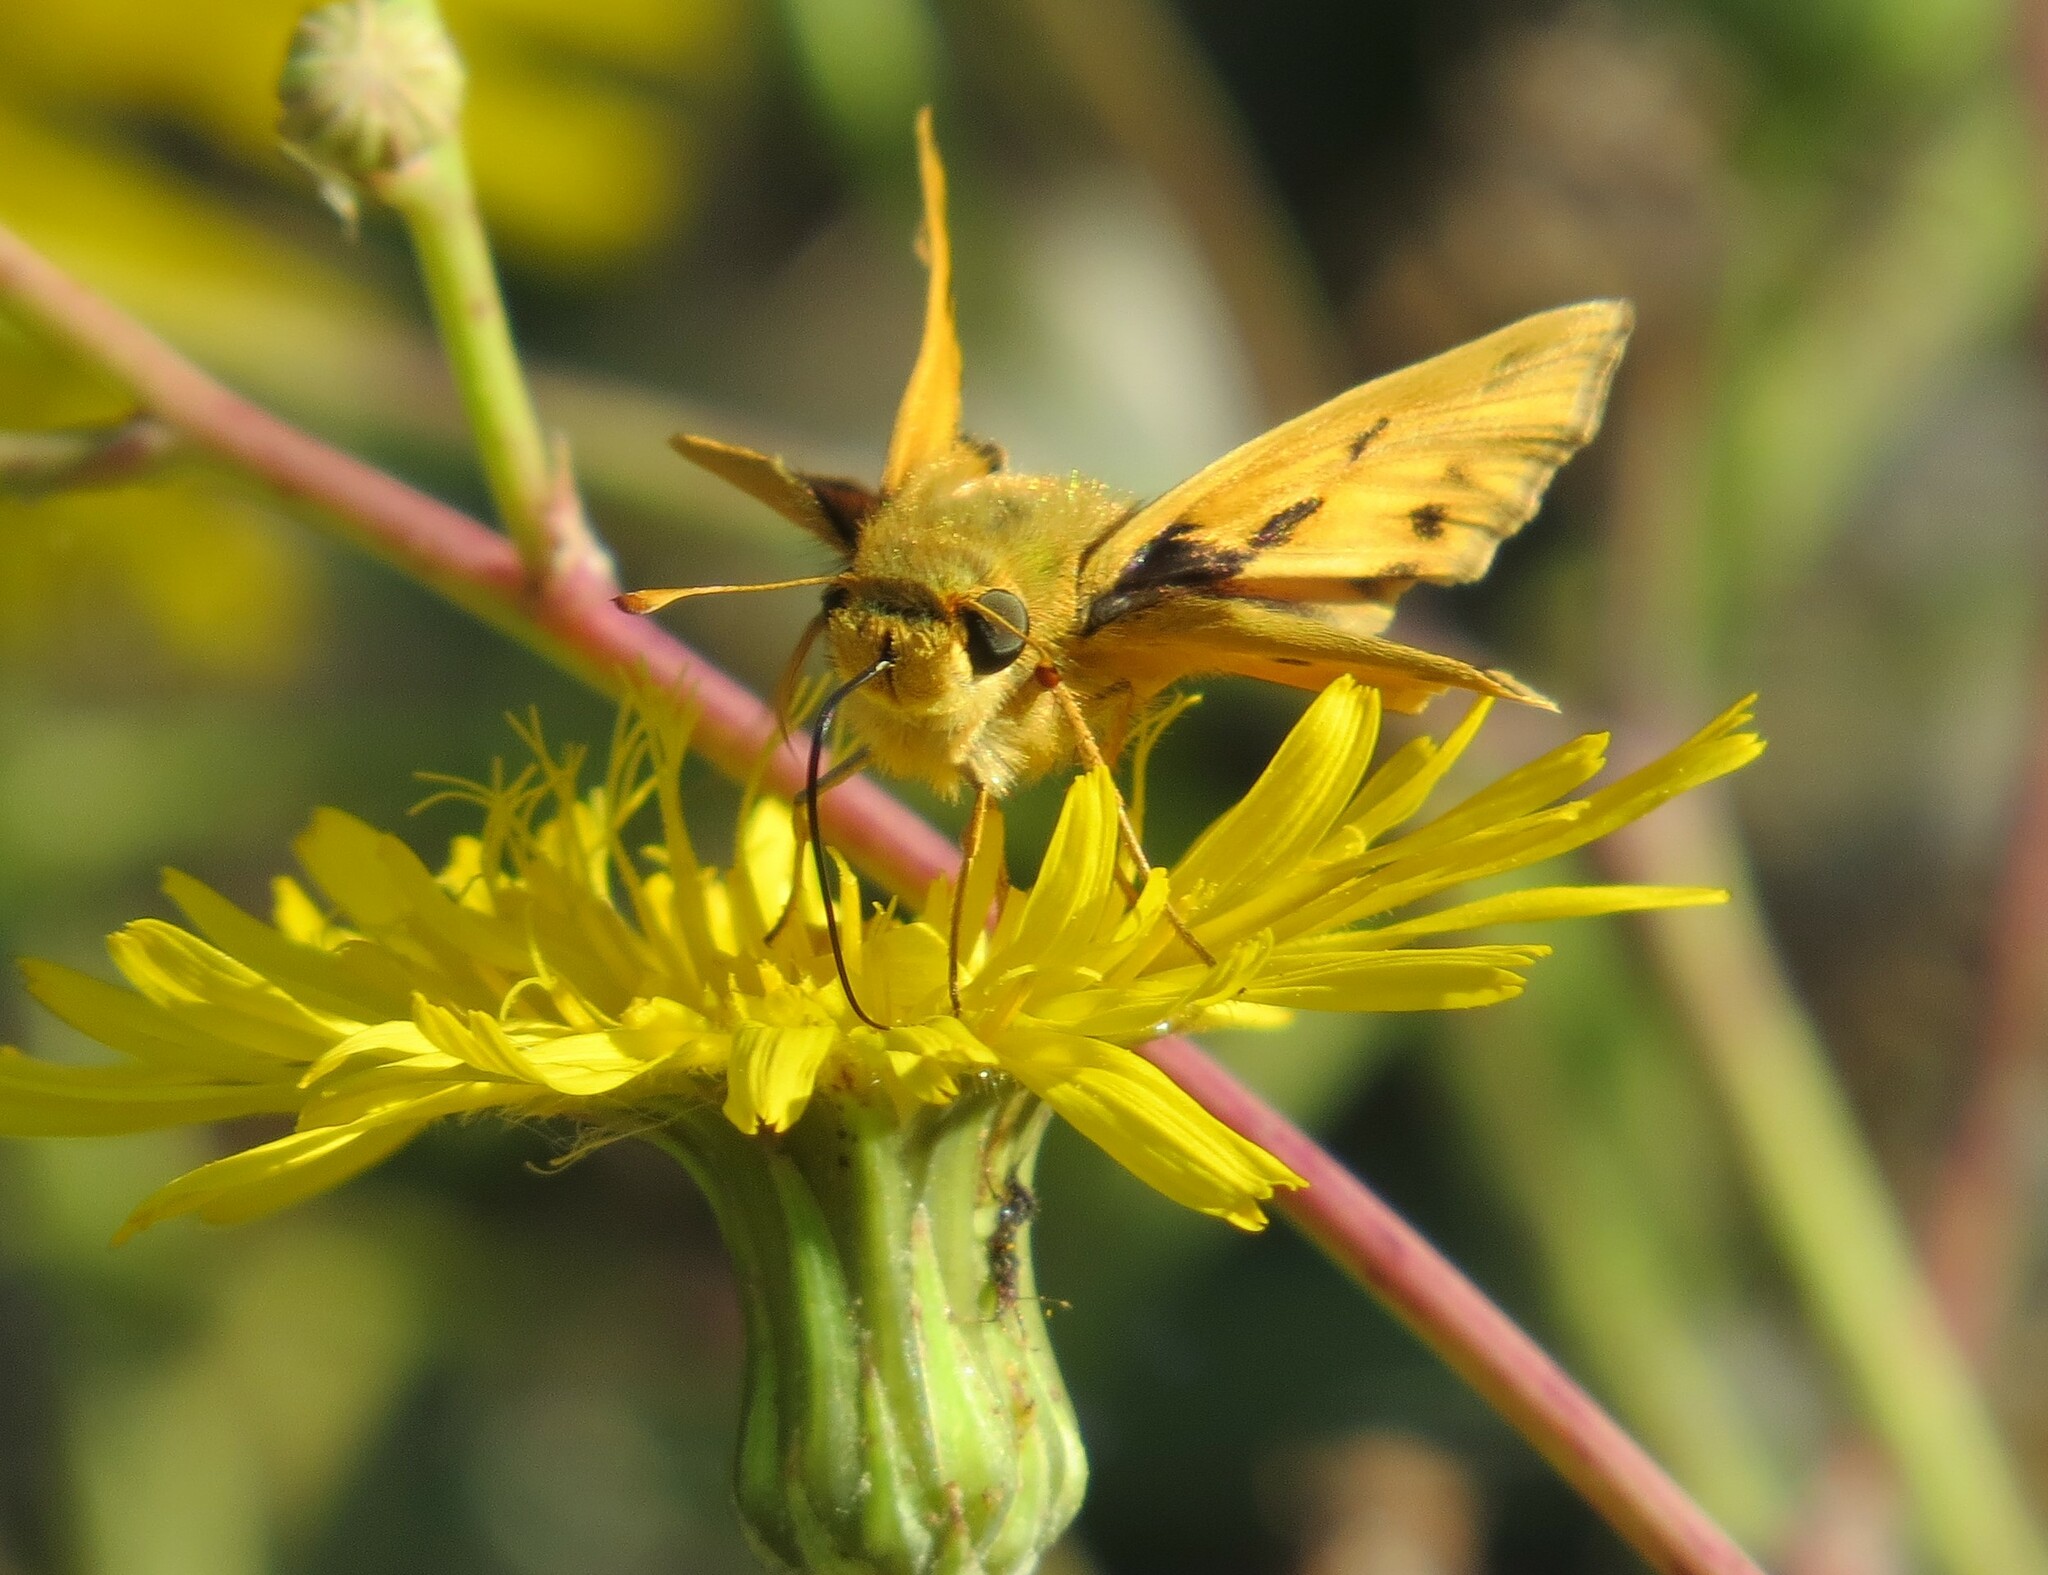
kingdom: Animalia
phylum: Arthropoda
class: Insecta
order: Lepidoptera
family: Hesperiidae
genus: Hylephila
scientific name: Hylephila phyleus
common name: Fiery skipper
